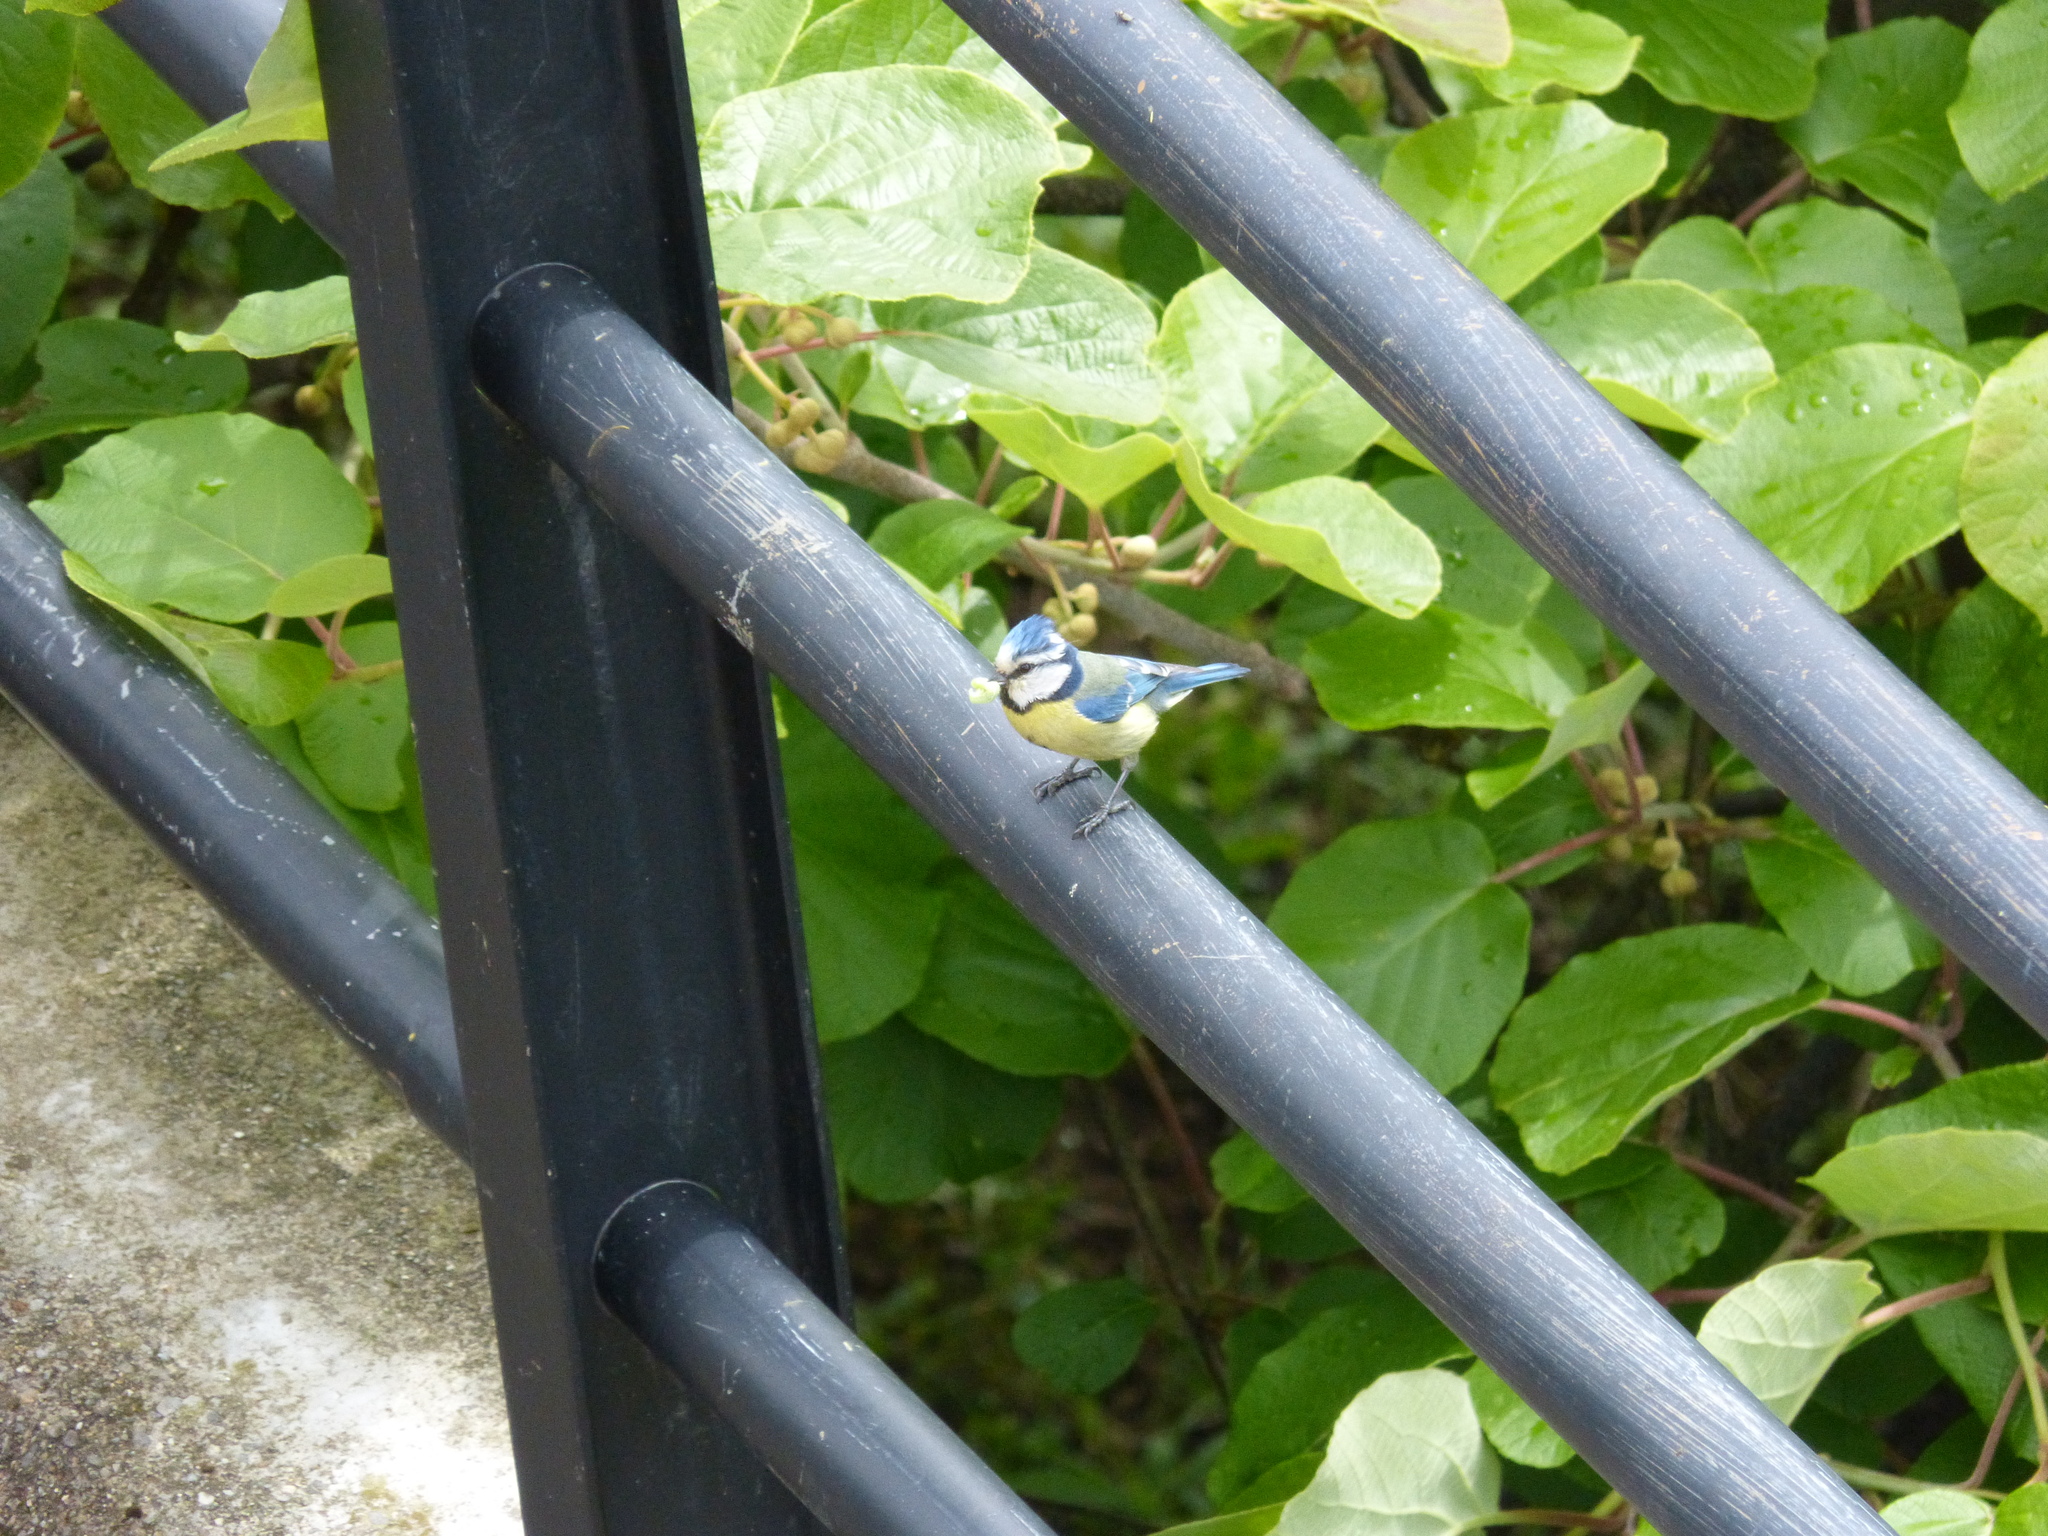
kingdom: Animalia
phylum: Chordata
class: Aves
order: Passeriformes
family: Paridae
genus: Cyanistes
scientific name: Cyanistes caeruleus
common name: Eurasian blue tit
